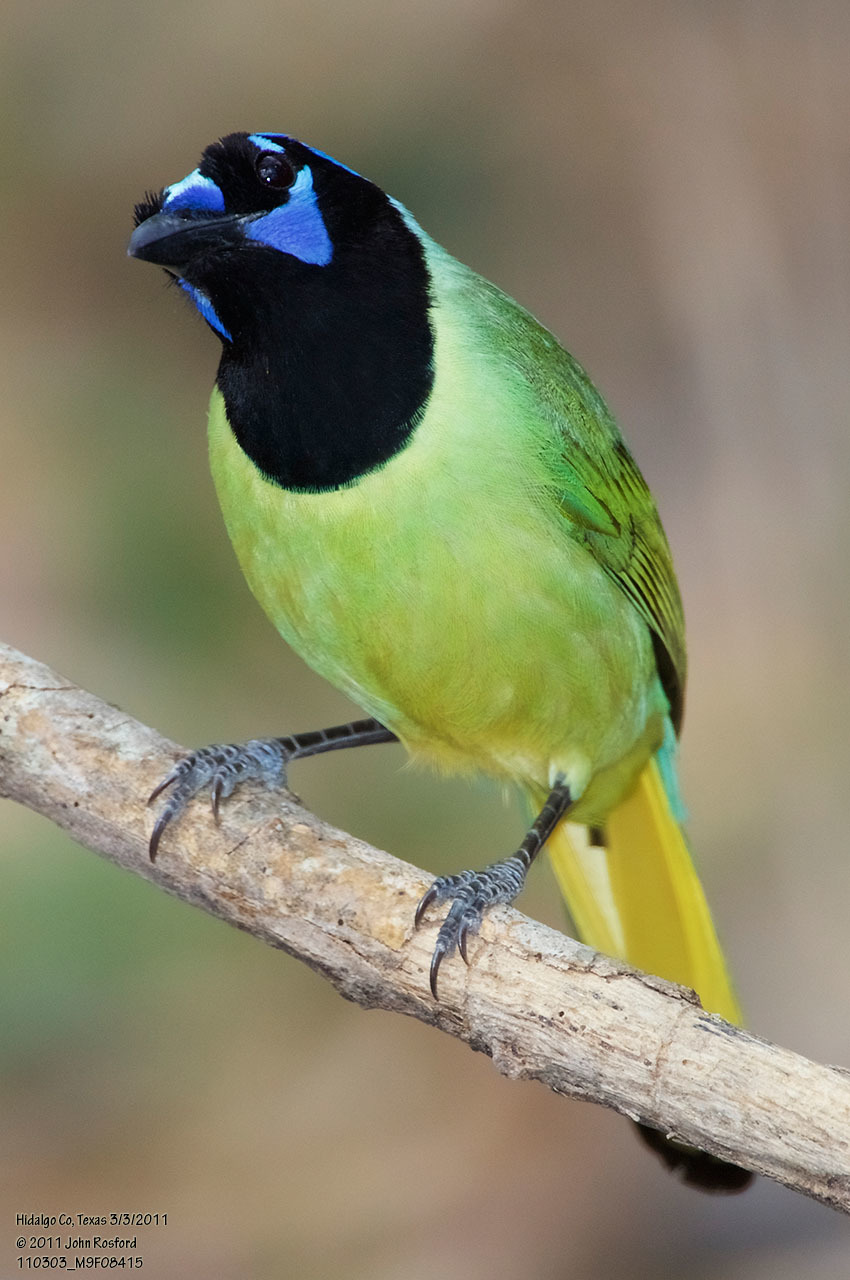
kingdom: Animalia
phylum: Chordata
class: Aves
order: Passeriformes
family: Corvidae
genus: Cyanocorax
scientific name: Cyanocorax yncas
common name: Green jay
